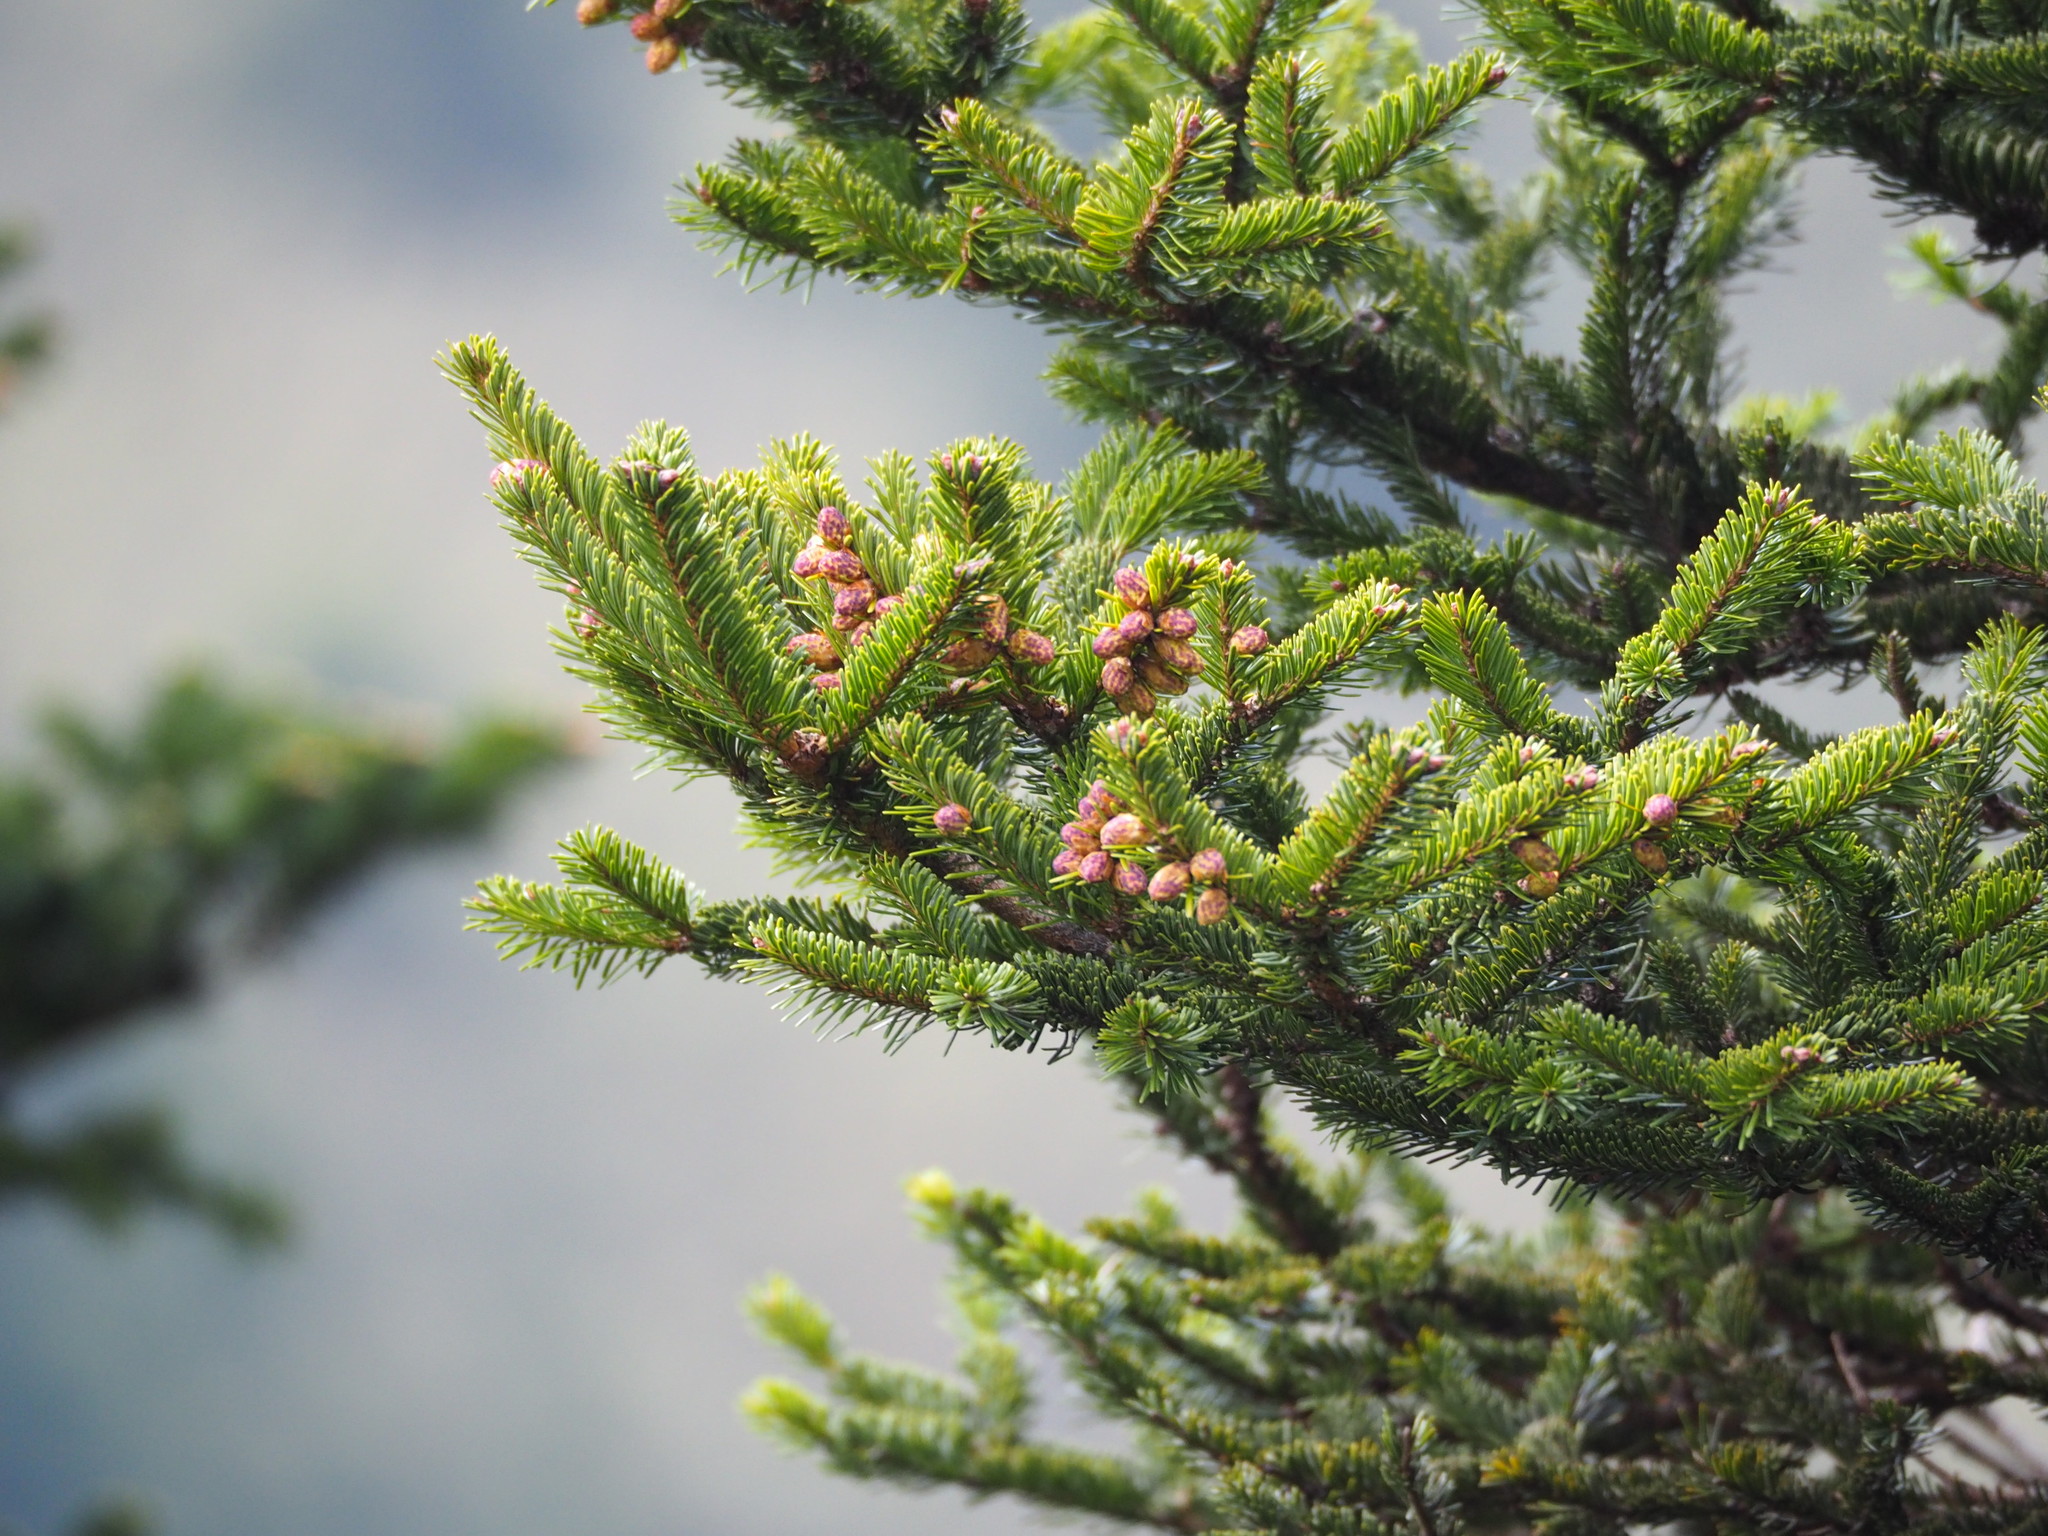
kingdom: Plantae
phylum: Tracheophyta
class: Pinopsida
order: Pinales
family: Pinaceae
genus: Abies
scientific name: Abies kawakamii
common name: Taiwan fir
